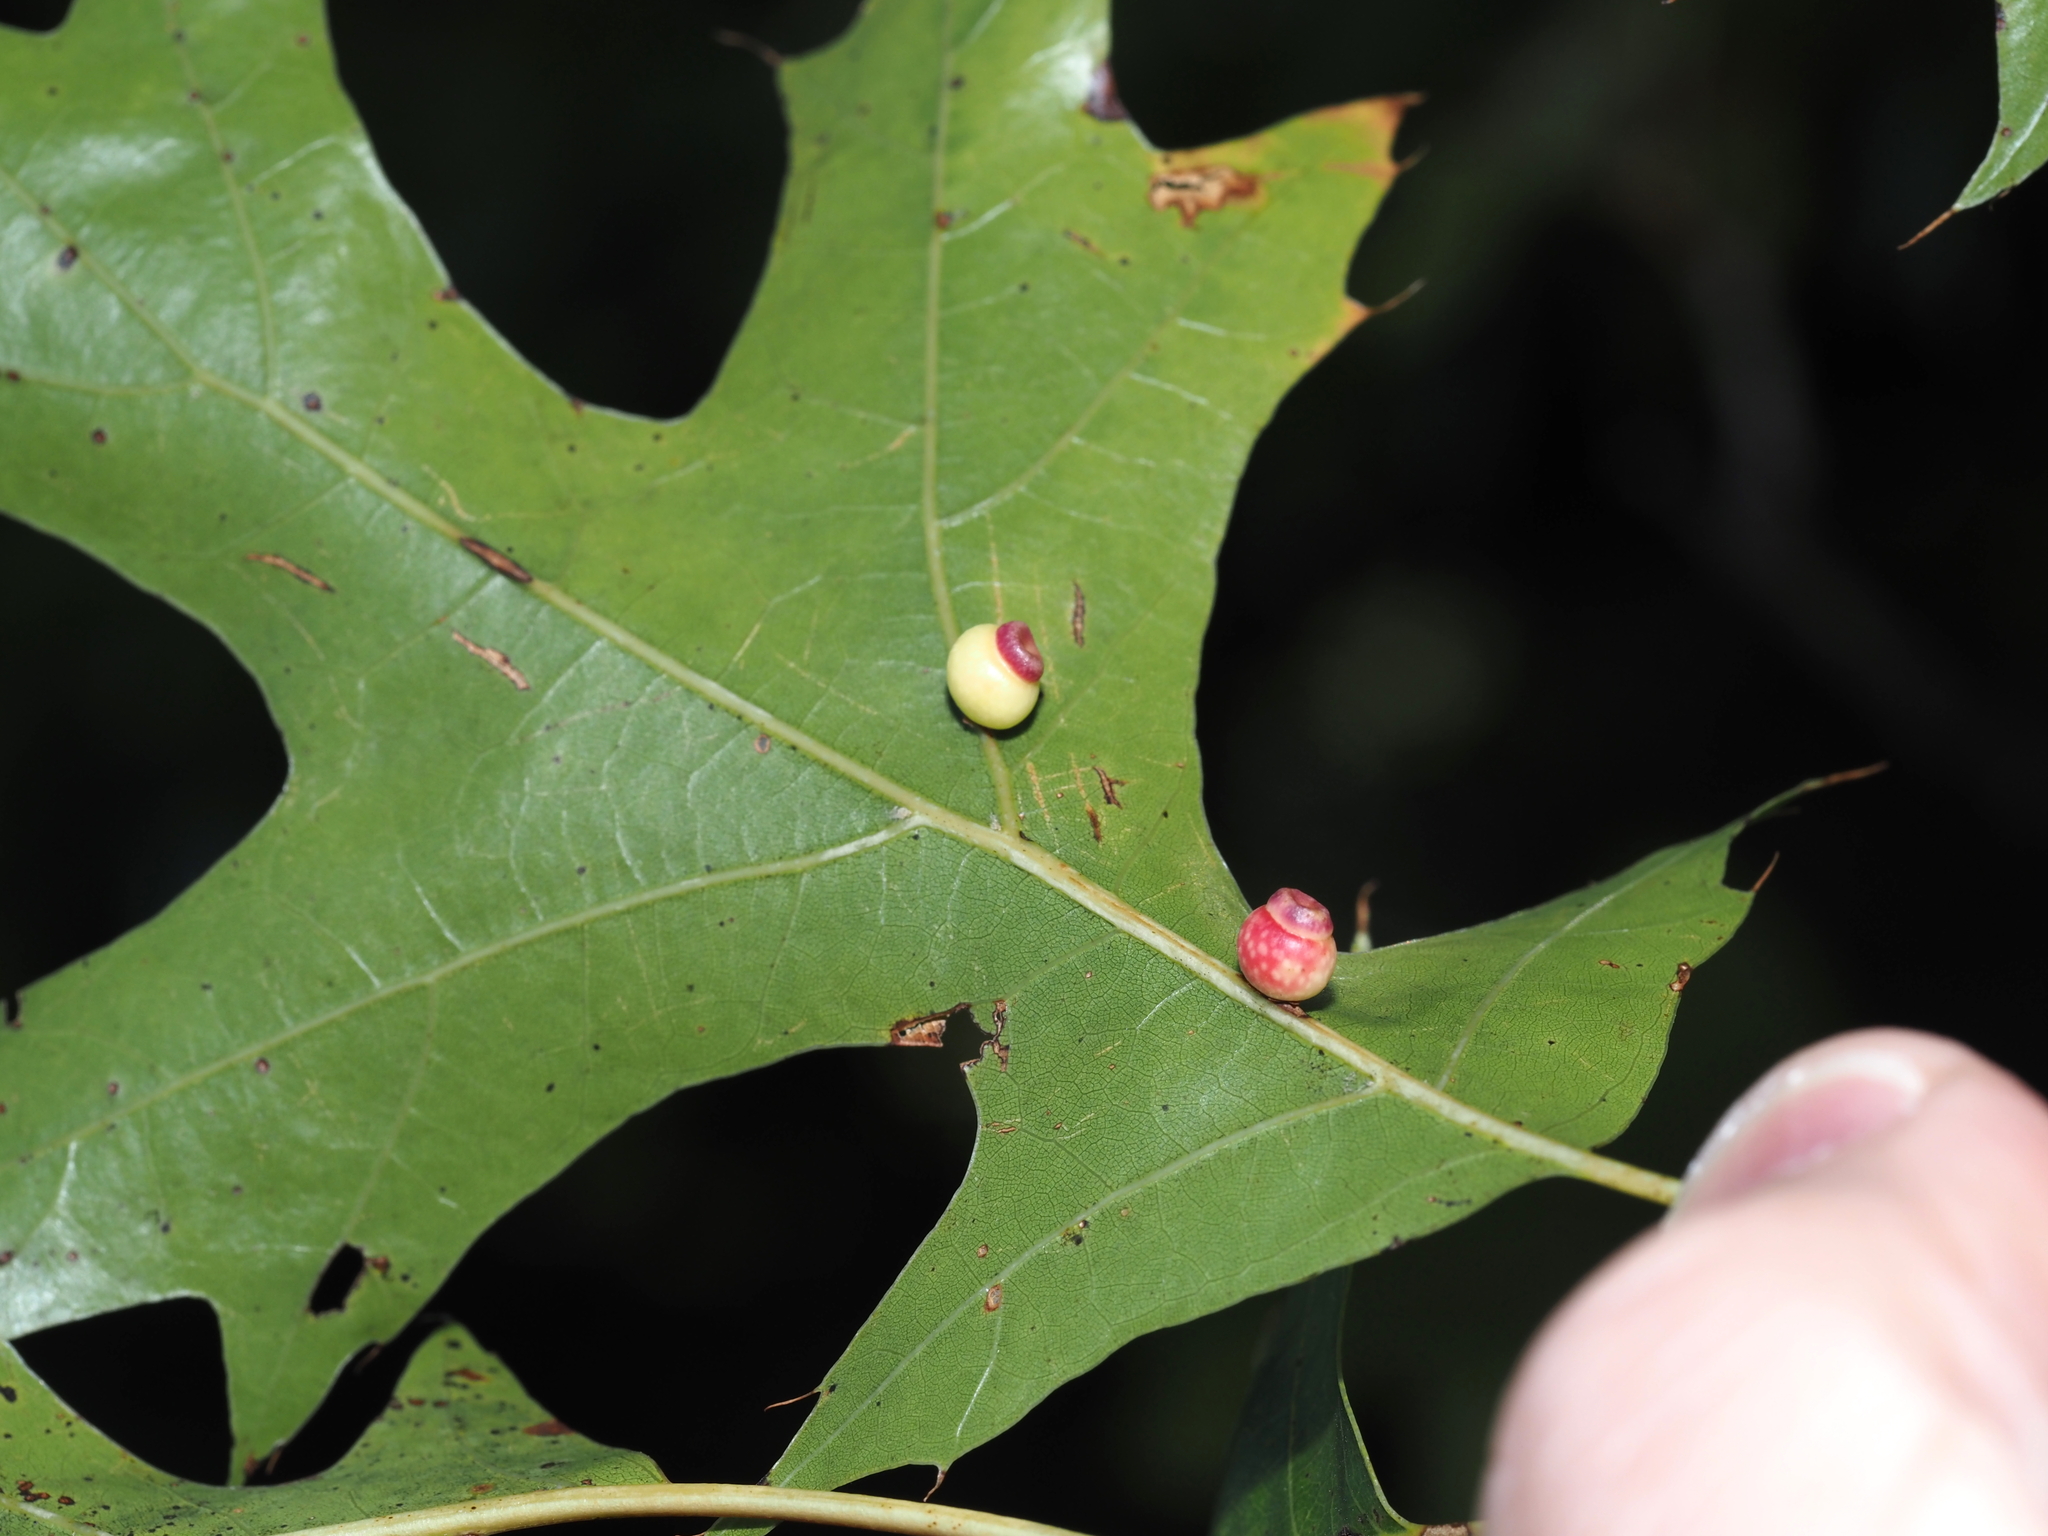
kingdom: Animalia
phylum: Arthropoda
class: Insecta
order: Hymenoptera
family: Cynipidae
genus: Kokkocynips
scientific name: Kokkocynips rileyi
